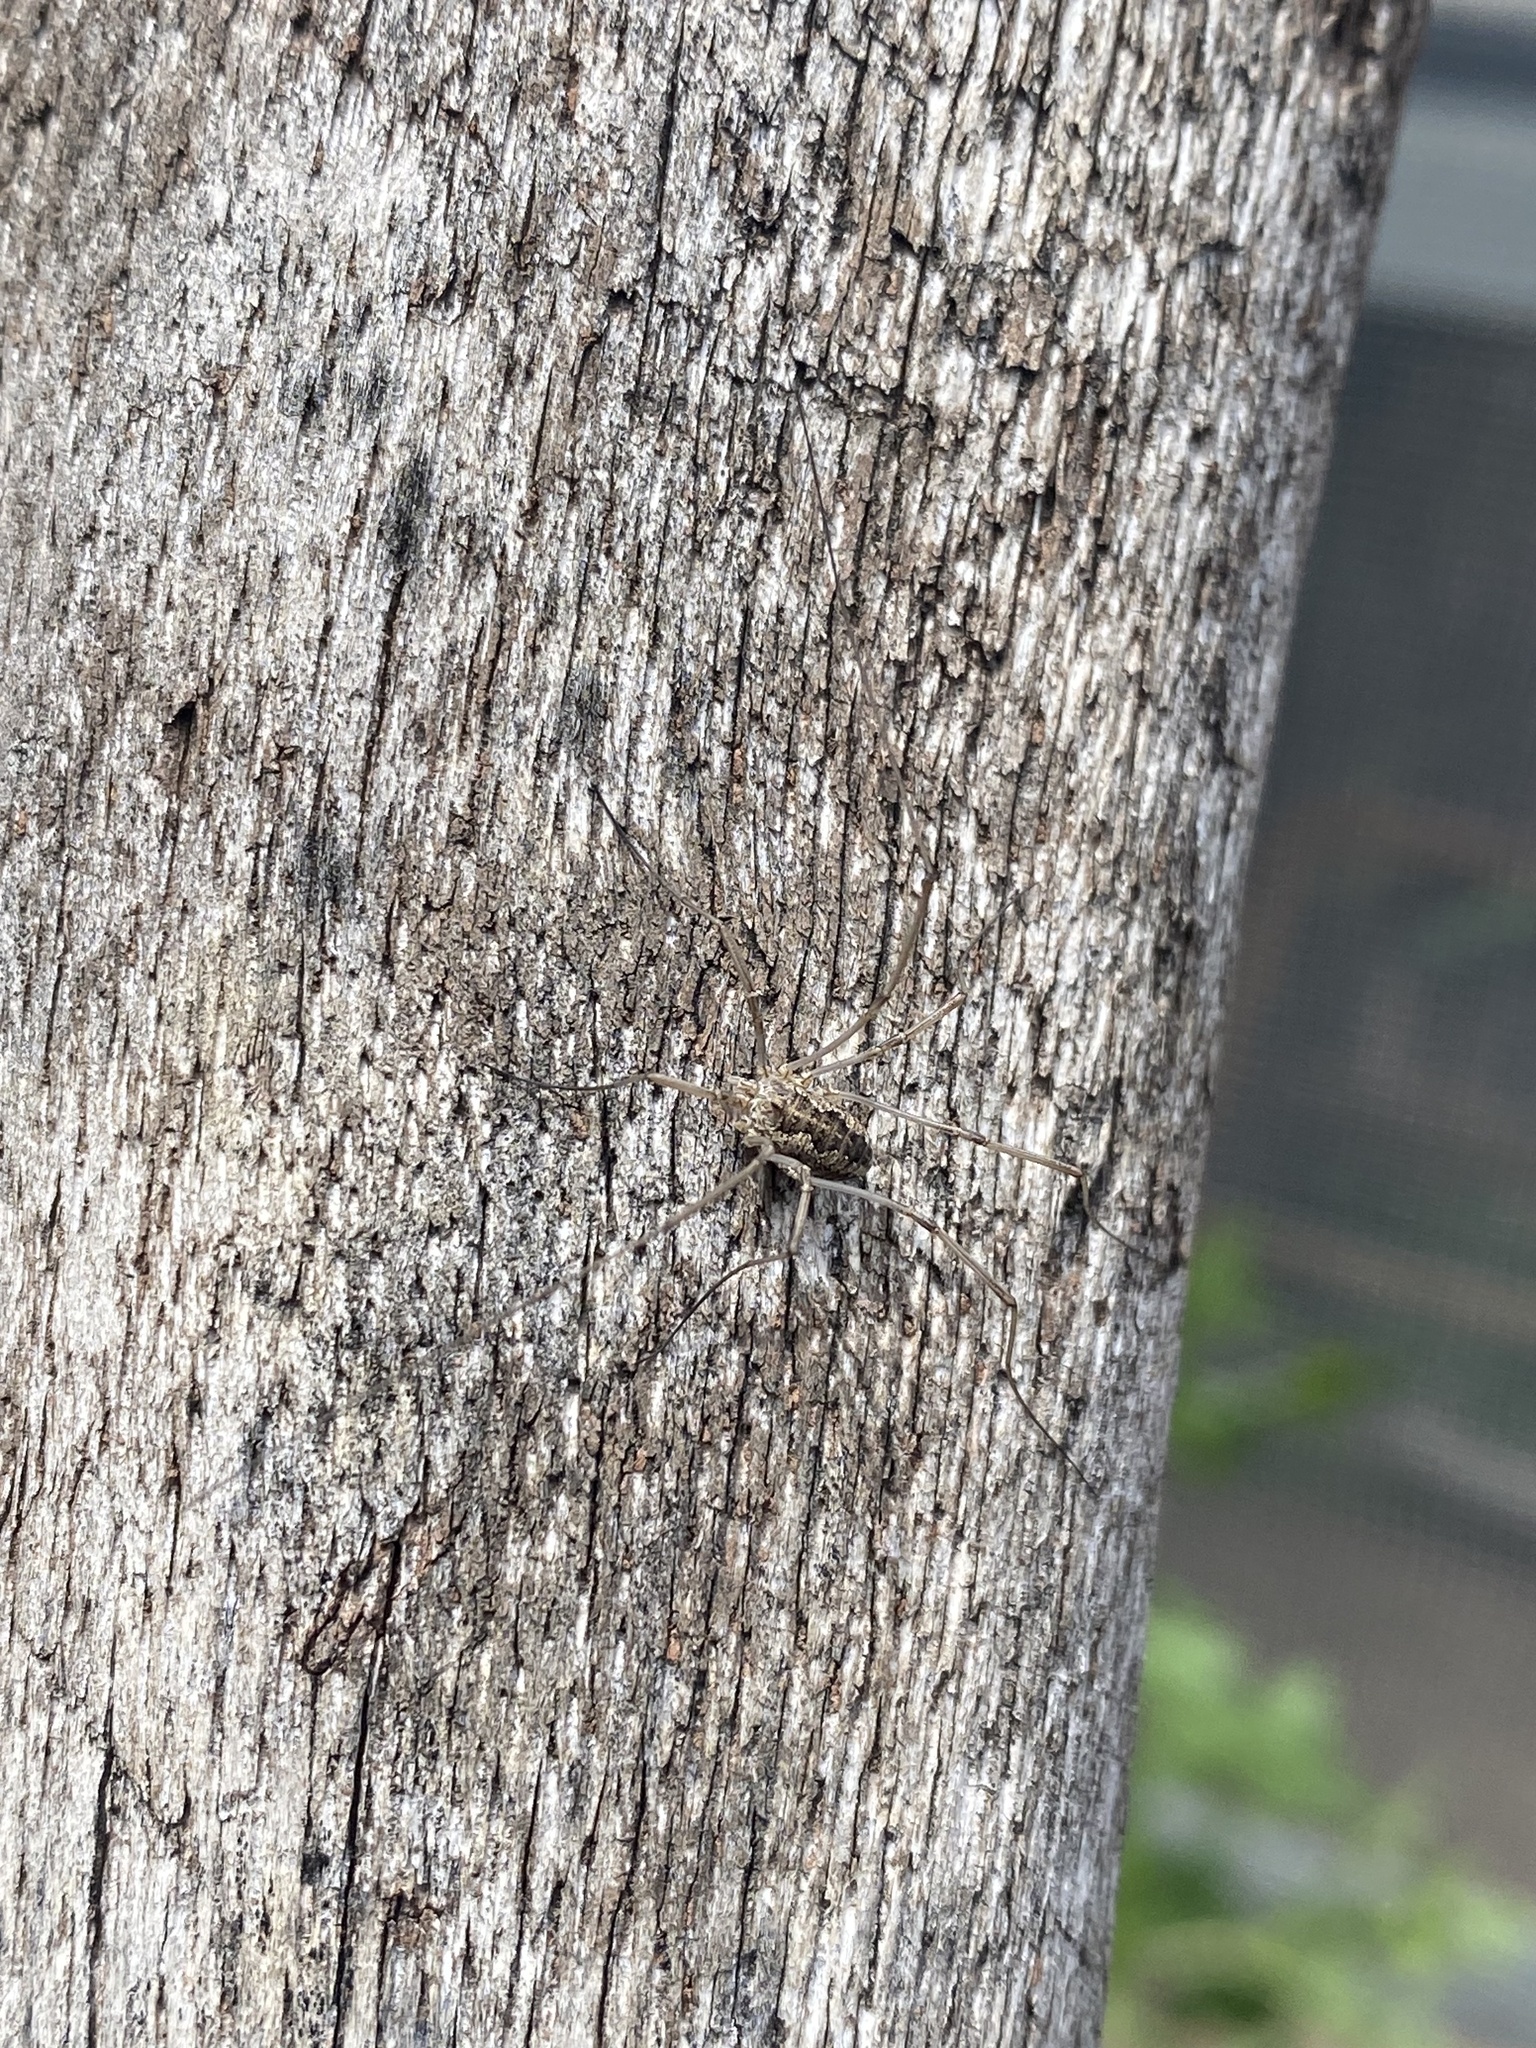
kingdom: Animalia
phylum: Arthropoda
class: Arachnida
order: Opiliones
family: Phalangiidae
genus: Phalangium
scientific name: Phalangium opilio
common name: Daddy longleg
